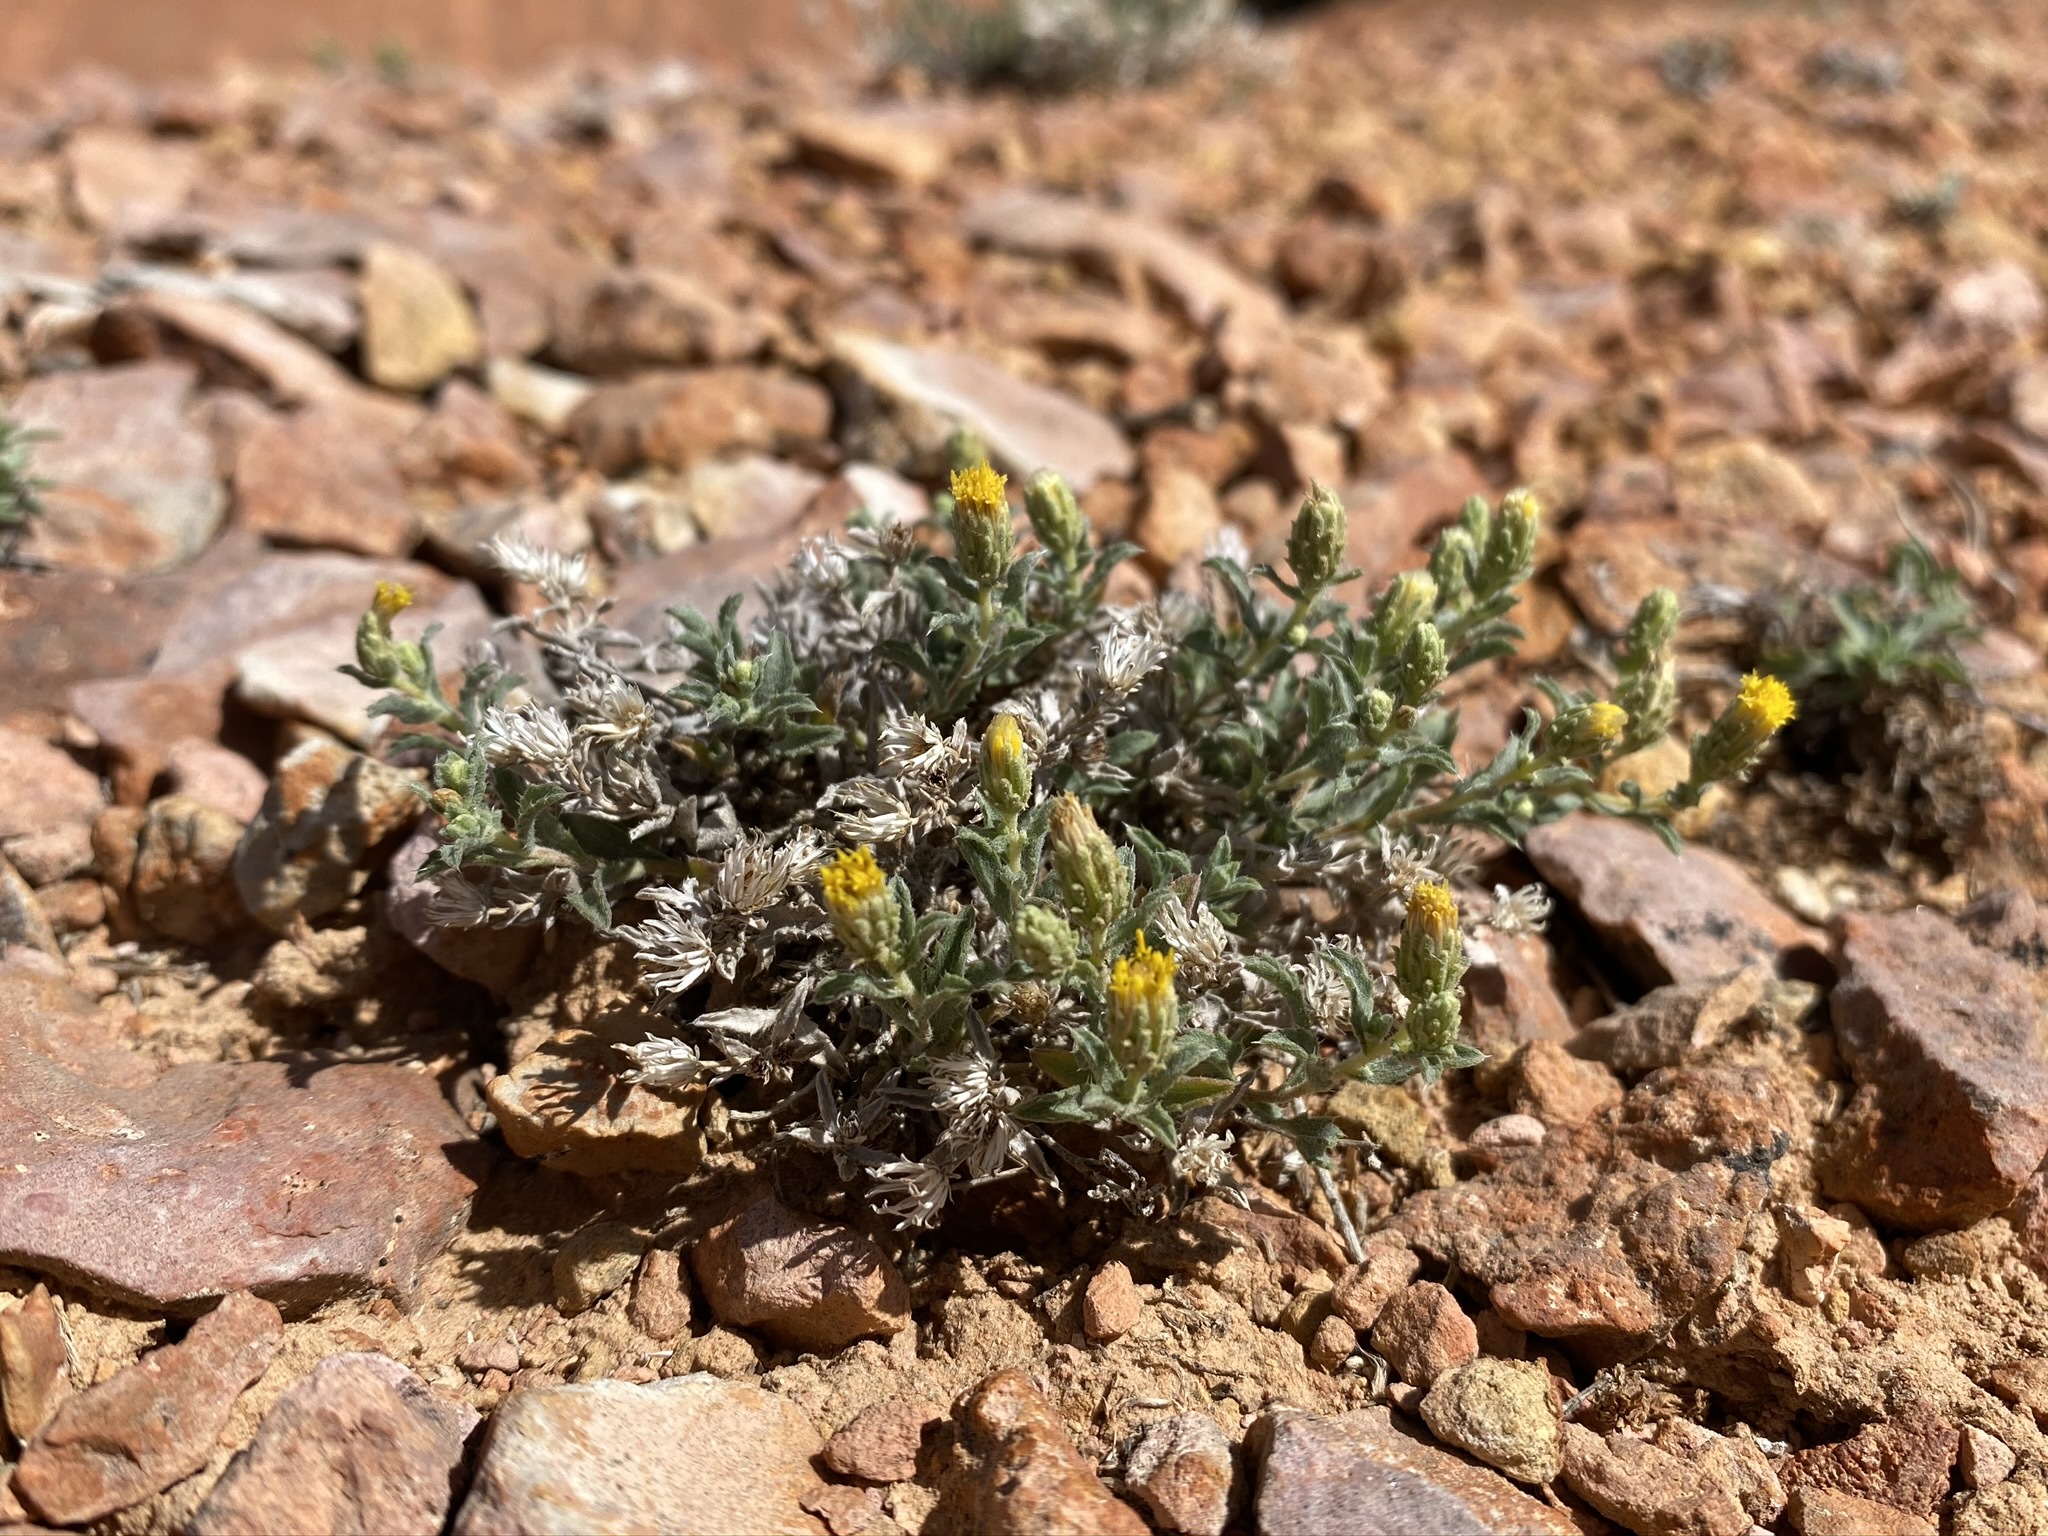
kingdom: Plantae
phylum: Tracheophyta
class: Magnoliopsida
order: Asterales
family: Asteraceae
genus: Xanthisma
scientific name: Xanthisma grindelioides
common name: Goldenweed
